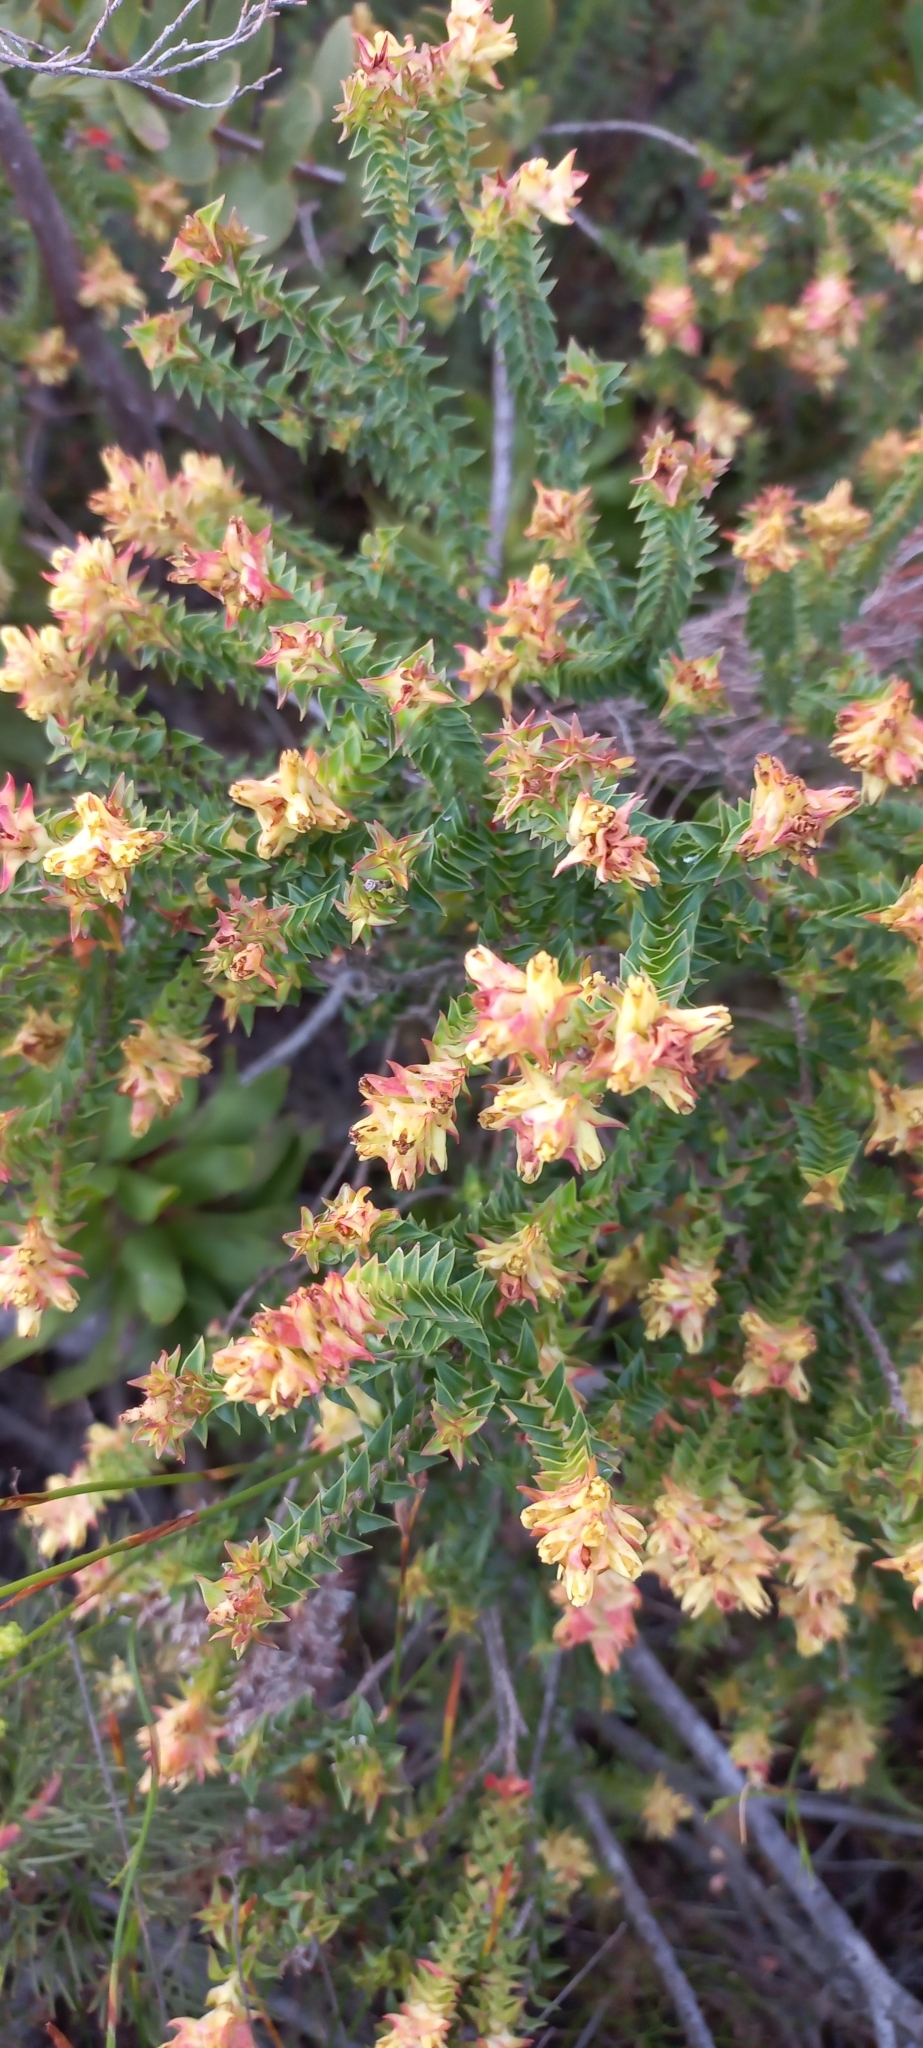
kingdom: Plantae
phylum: Tracheophyta
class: Magnoliopsida
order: Myrtales
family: Penaeaceae
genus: Penaea
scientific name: Penaea mucronata
